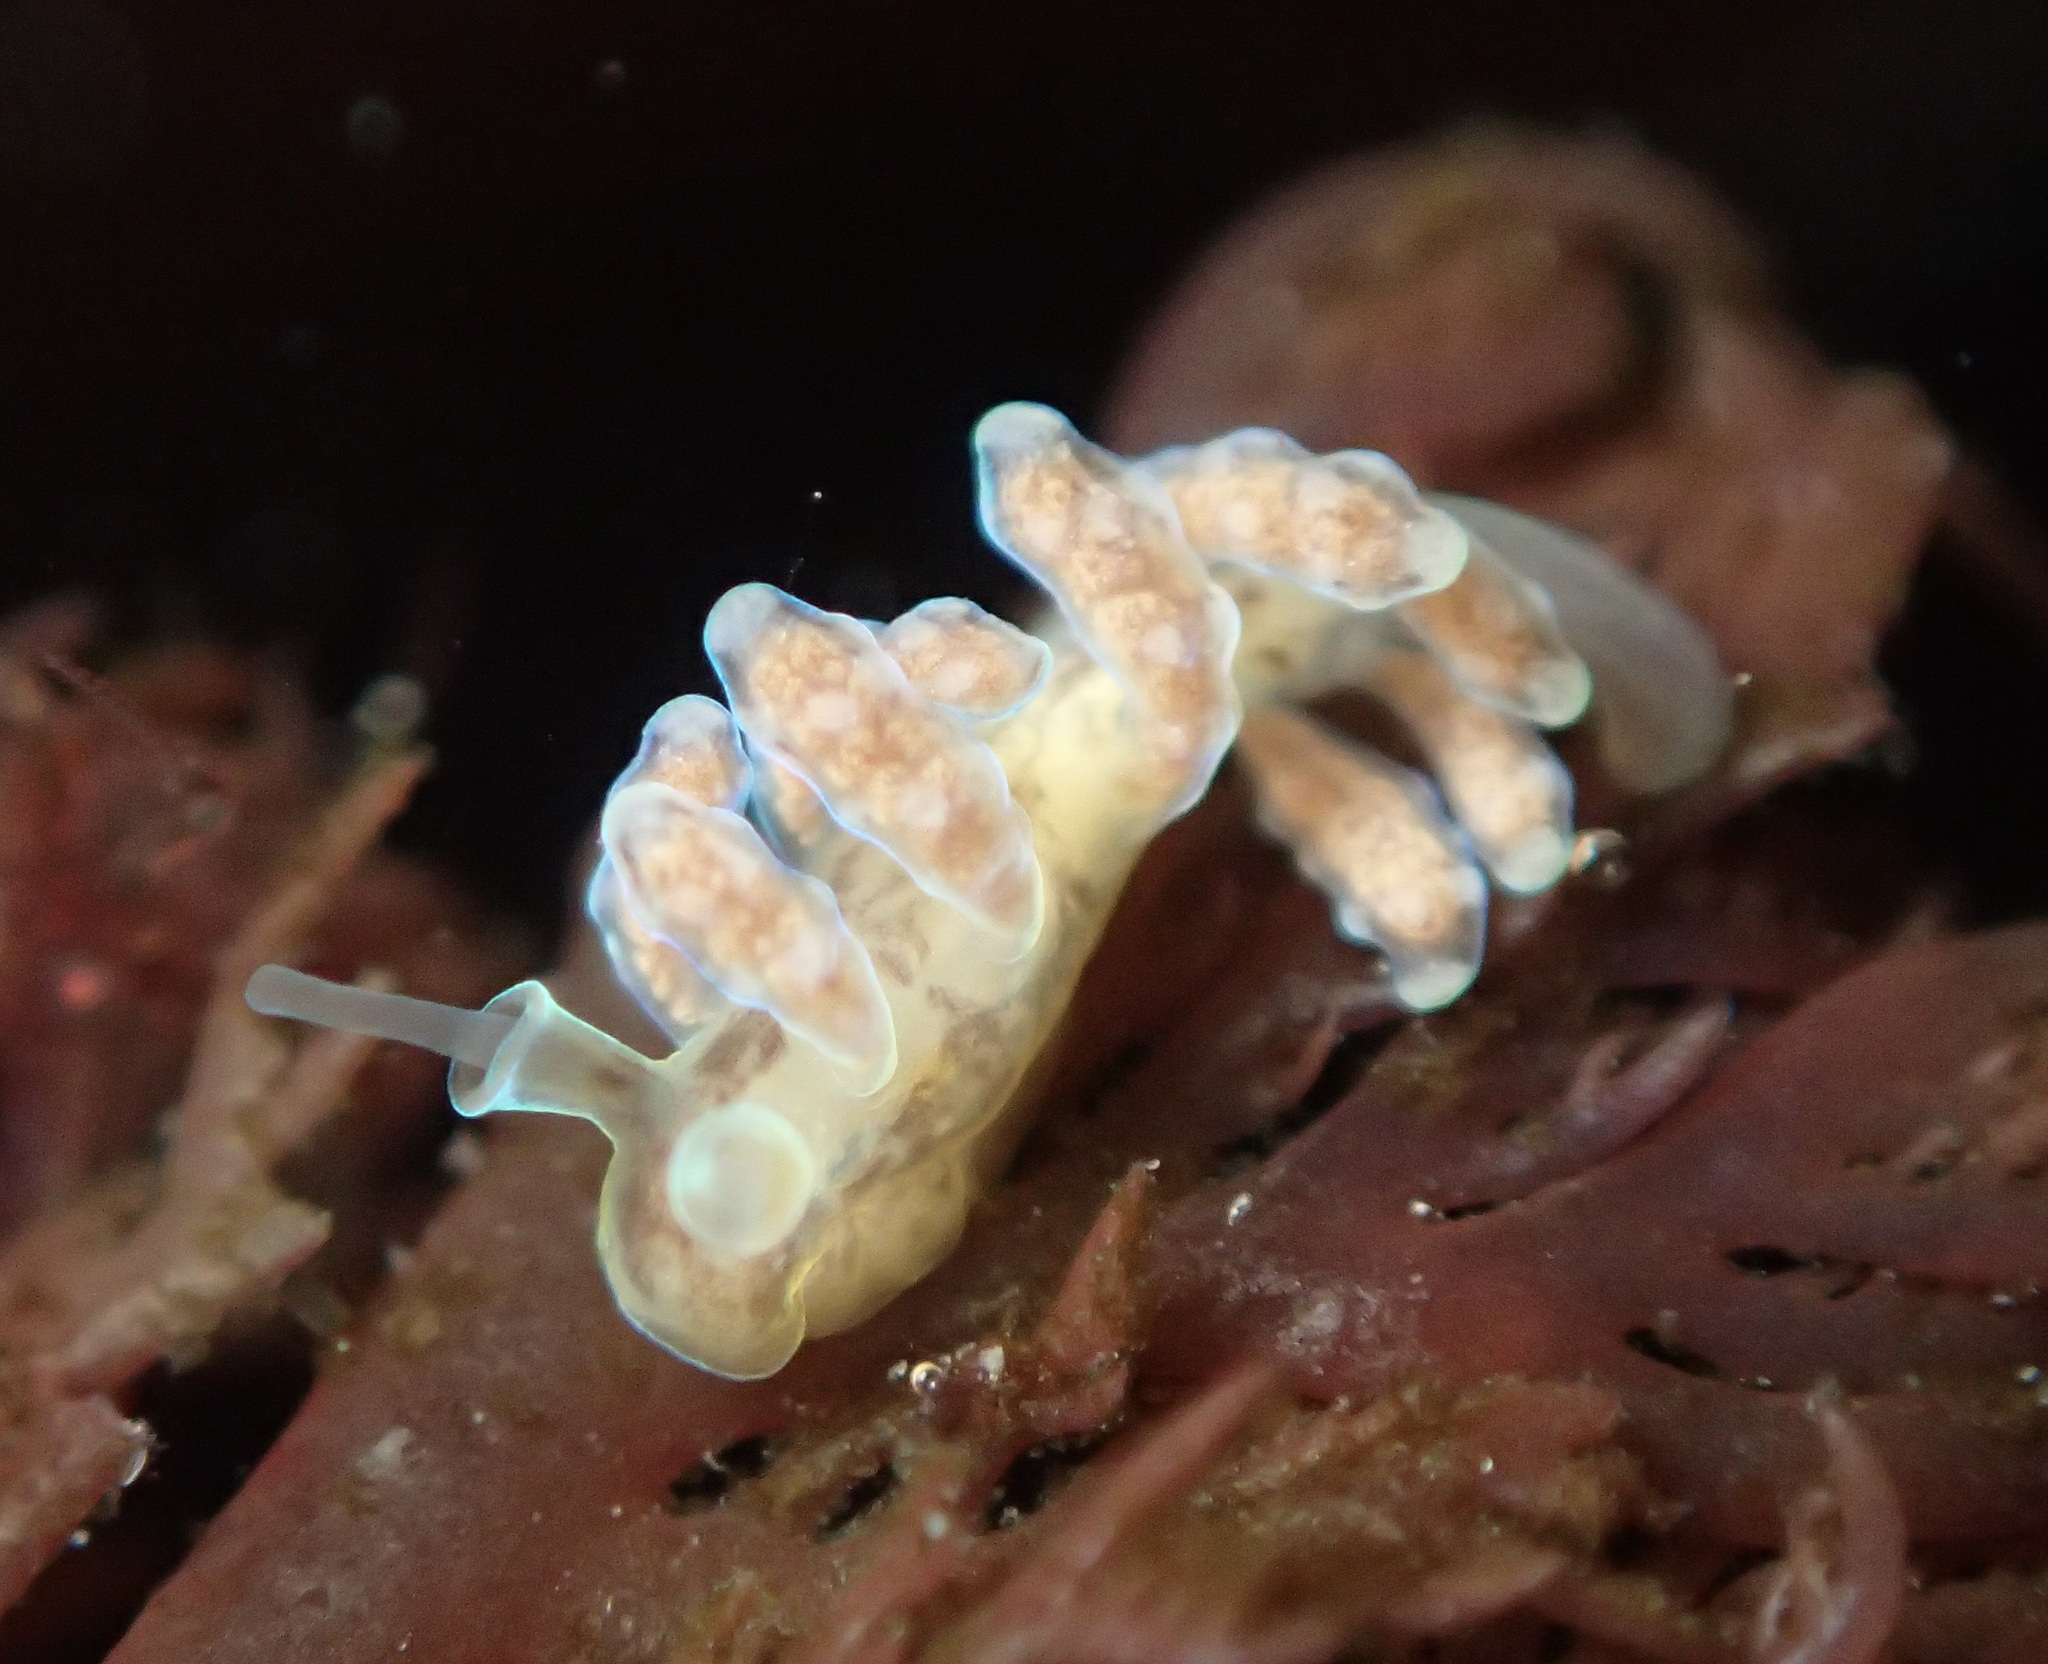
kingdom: Animalia
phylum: Mollusca
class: Gastropoda
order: Nudibranchia
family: Dotidae
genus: Doto
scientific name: Doto columbiana
